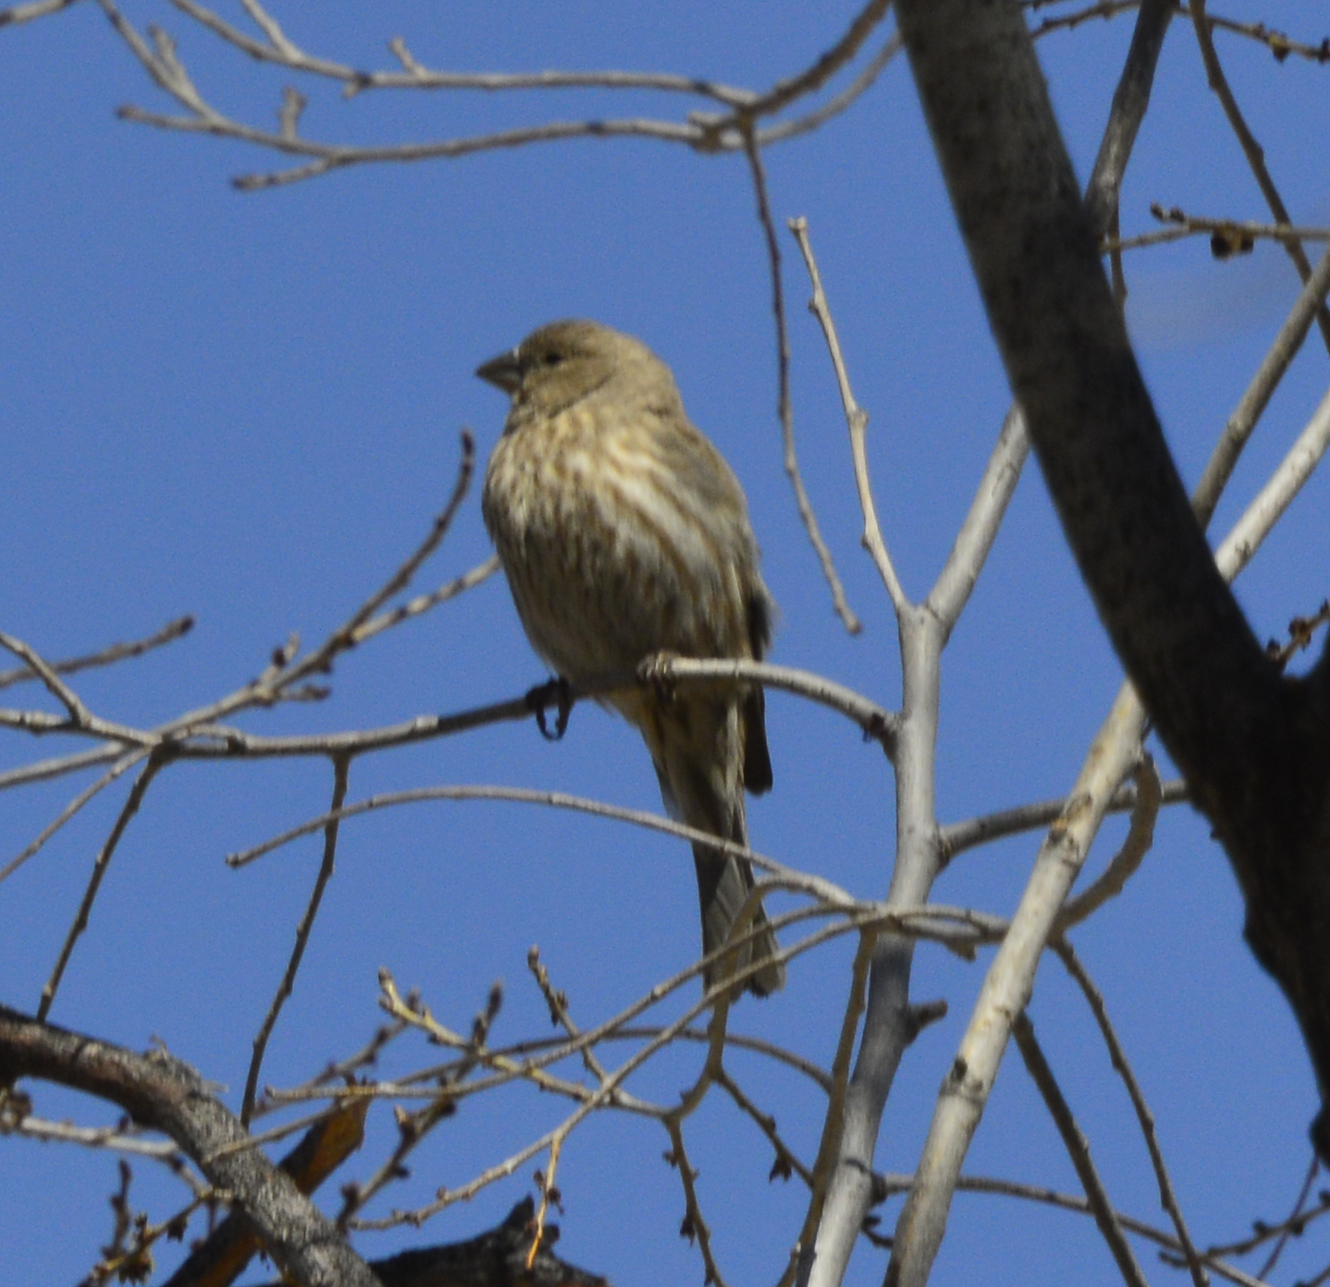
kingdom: Animalia
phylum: Chordata
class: Aves
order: Passeriformes
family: Fringillidae
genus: Haemorhous
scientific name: Haemorhous mexicanus
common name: House finch
